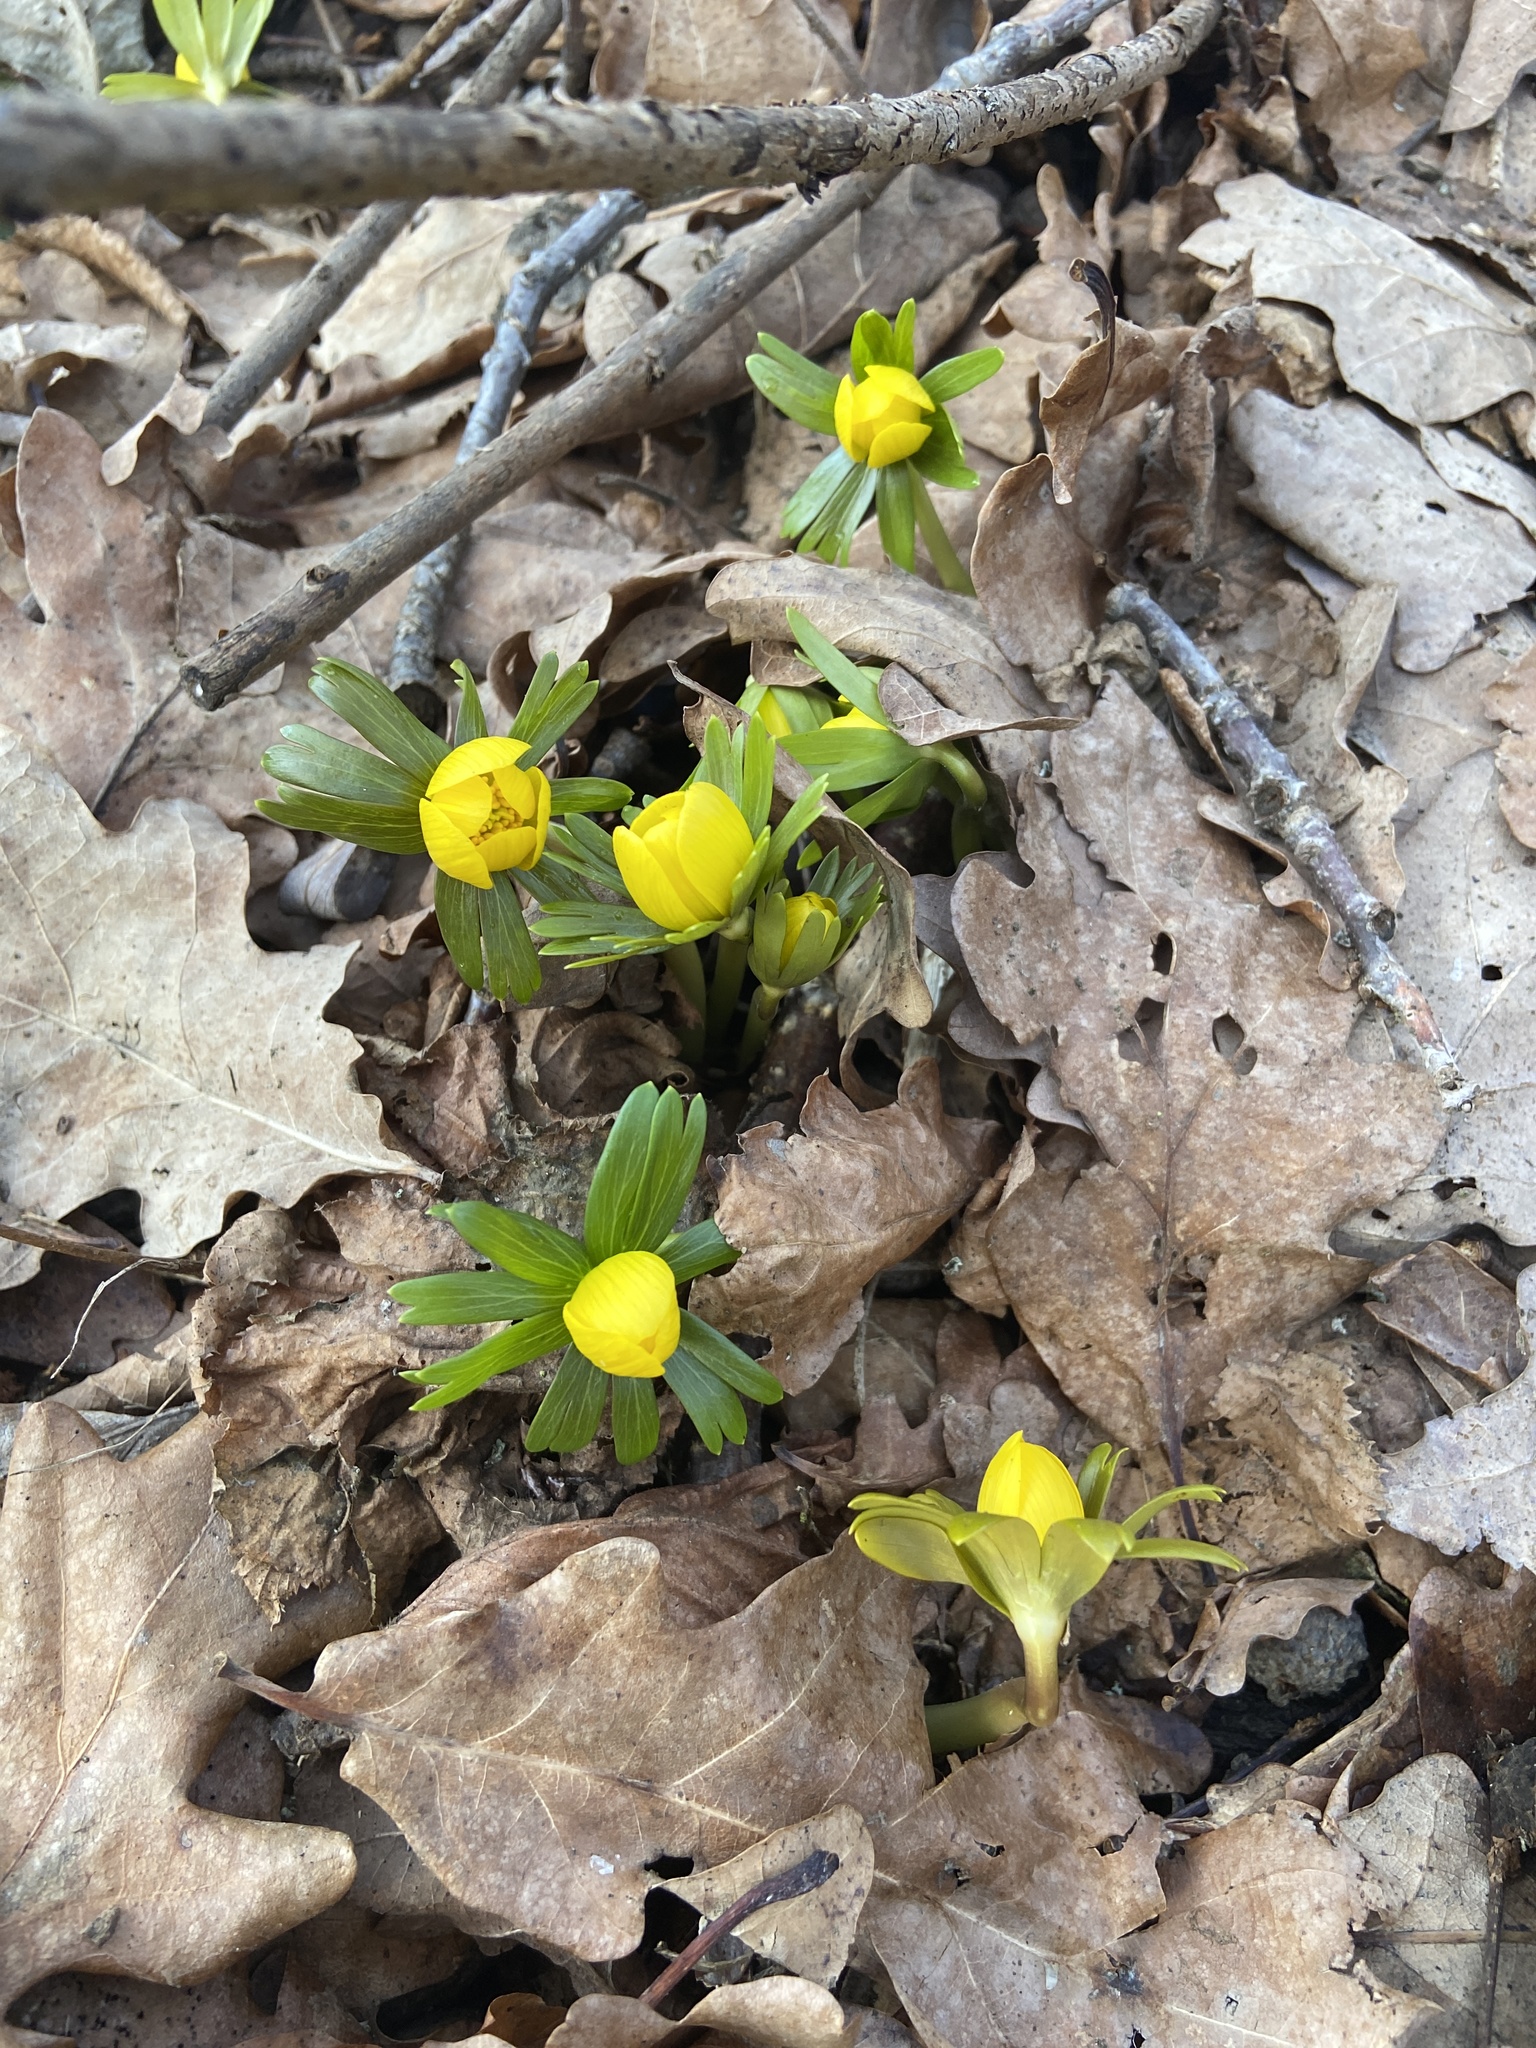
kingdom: Plantae
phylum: Tracheophyta
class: Magnoliopsida
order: Ranunculales
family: Ranunculaceae
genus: Eranthis
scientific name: Eranthis hyemalis
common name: Winter aconite
